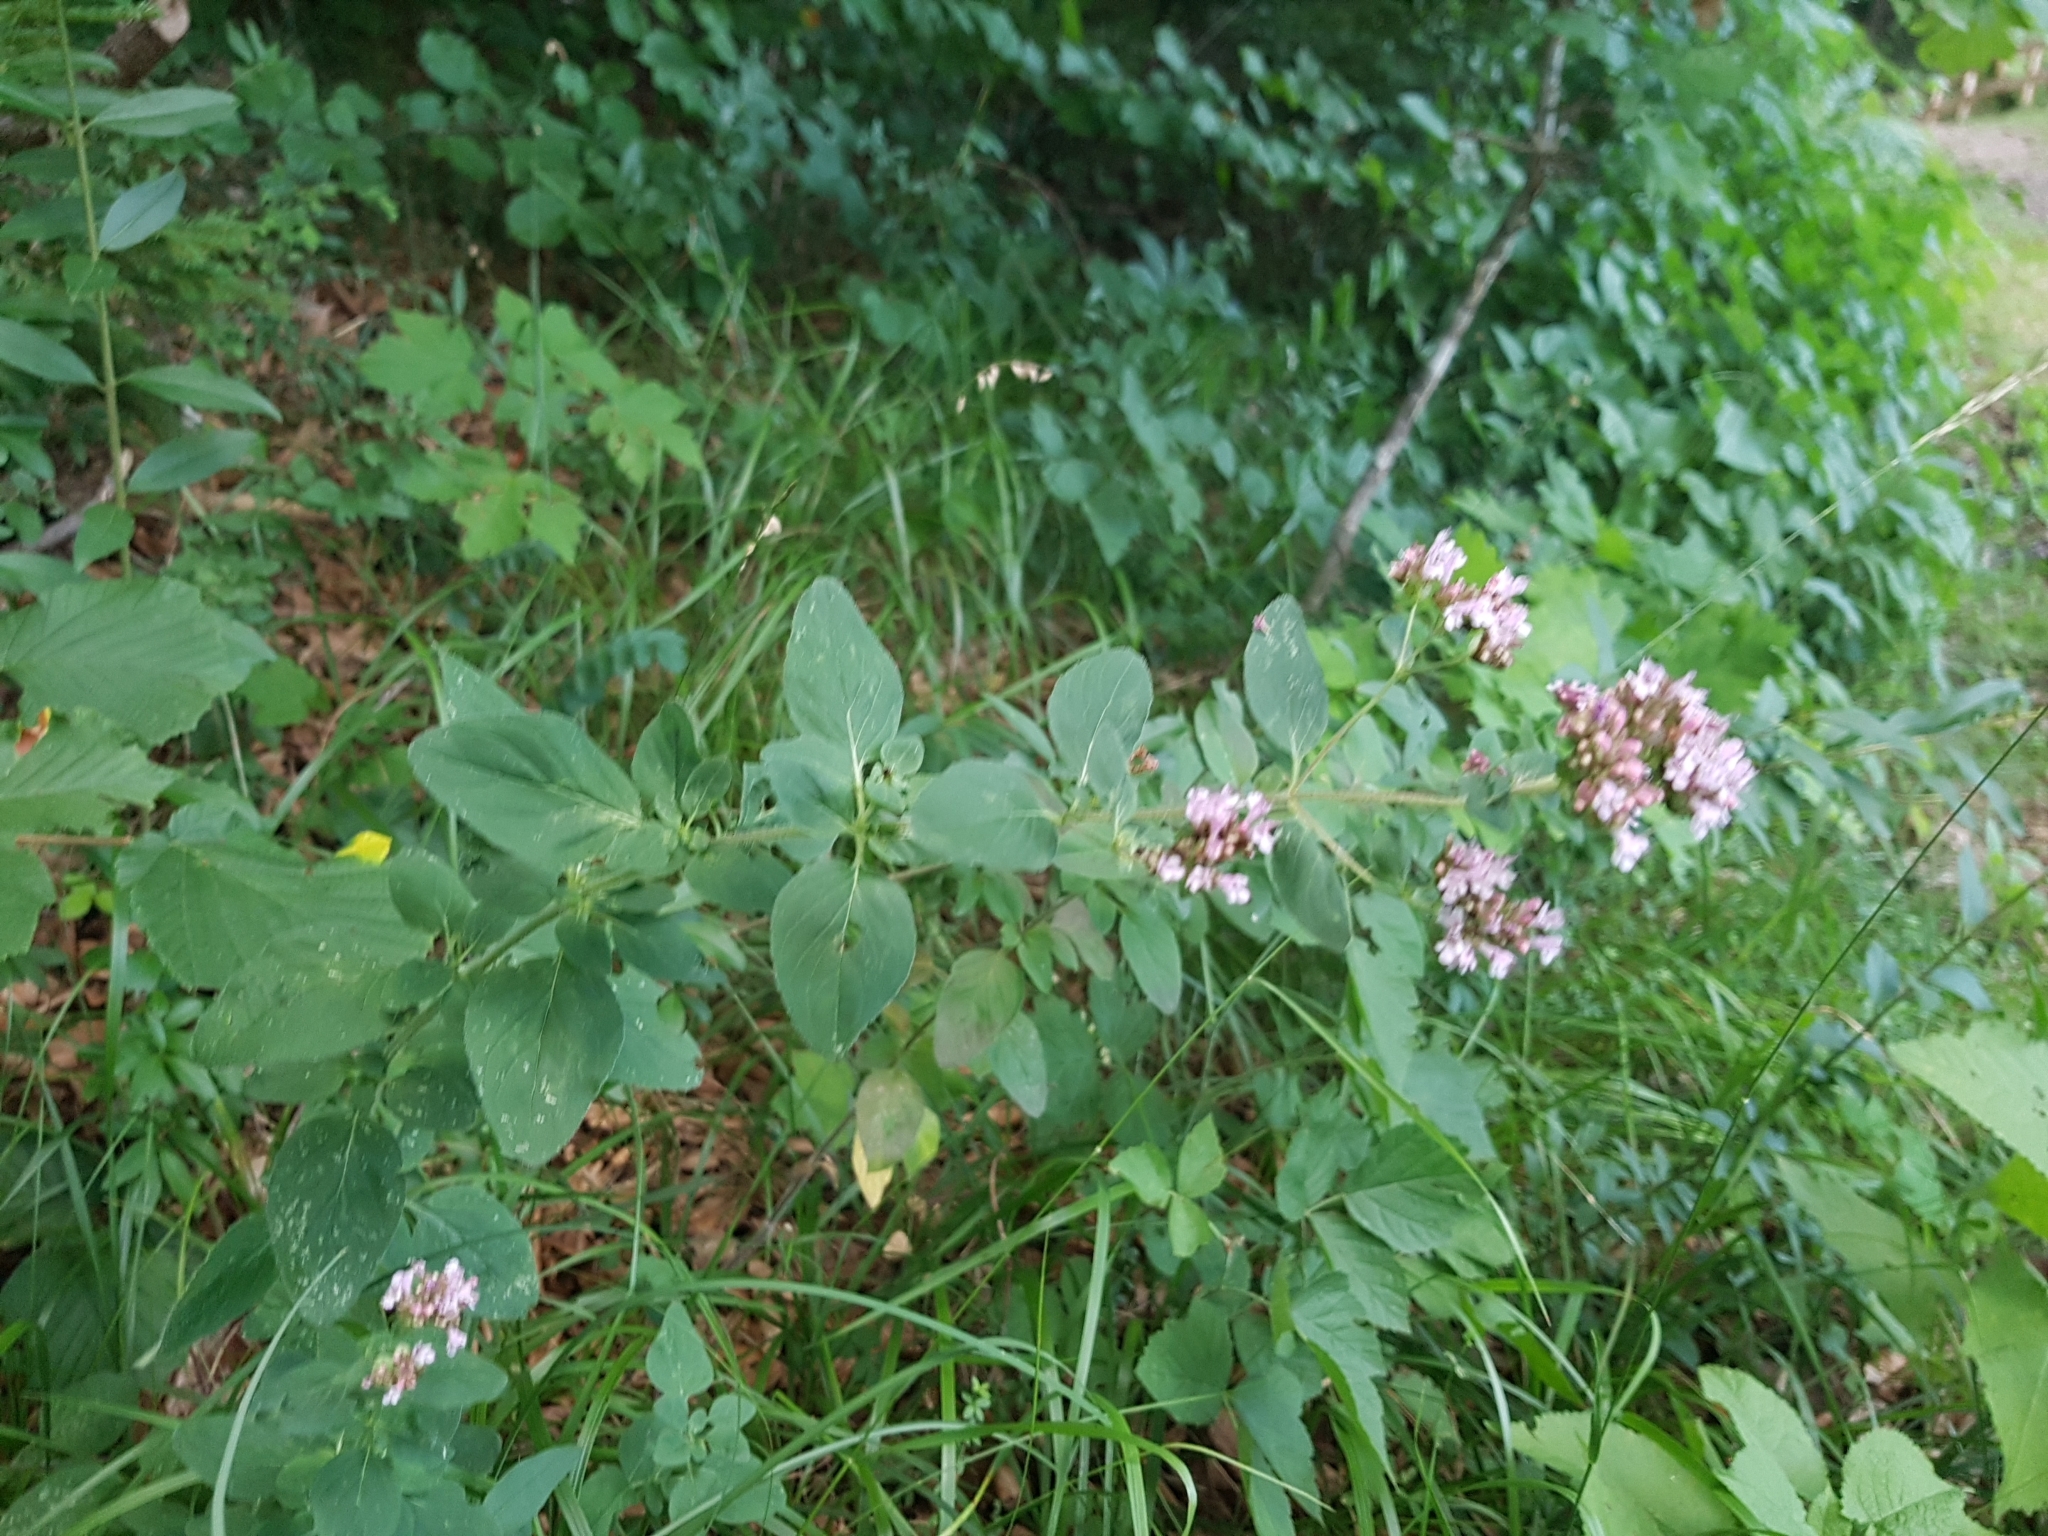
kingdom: Plantae
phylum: Tracheophyta
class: Magnoliopsida
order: Lamiales
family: Lamiaceae
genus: Origanum
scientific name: Origanum vulgare
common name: Wild marjoram
